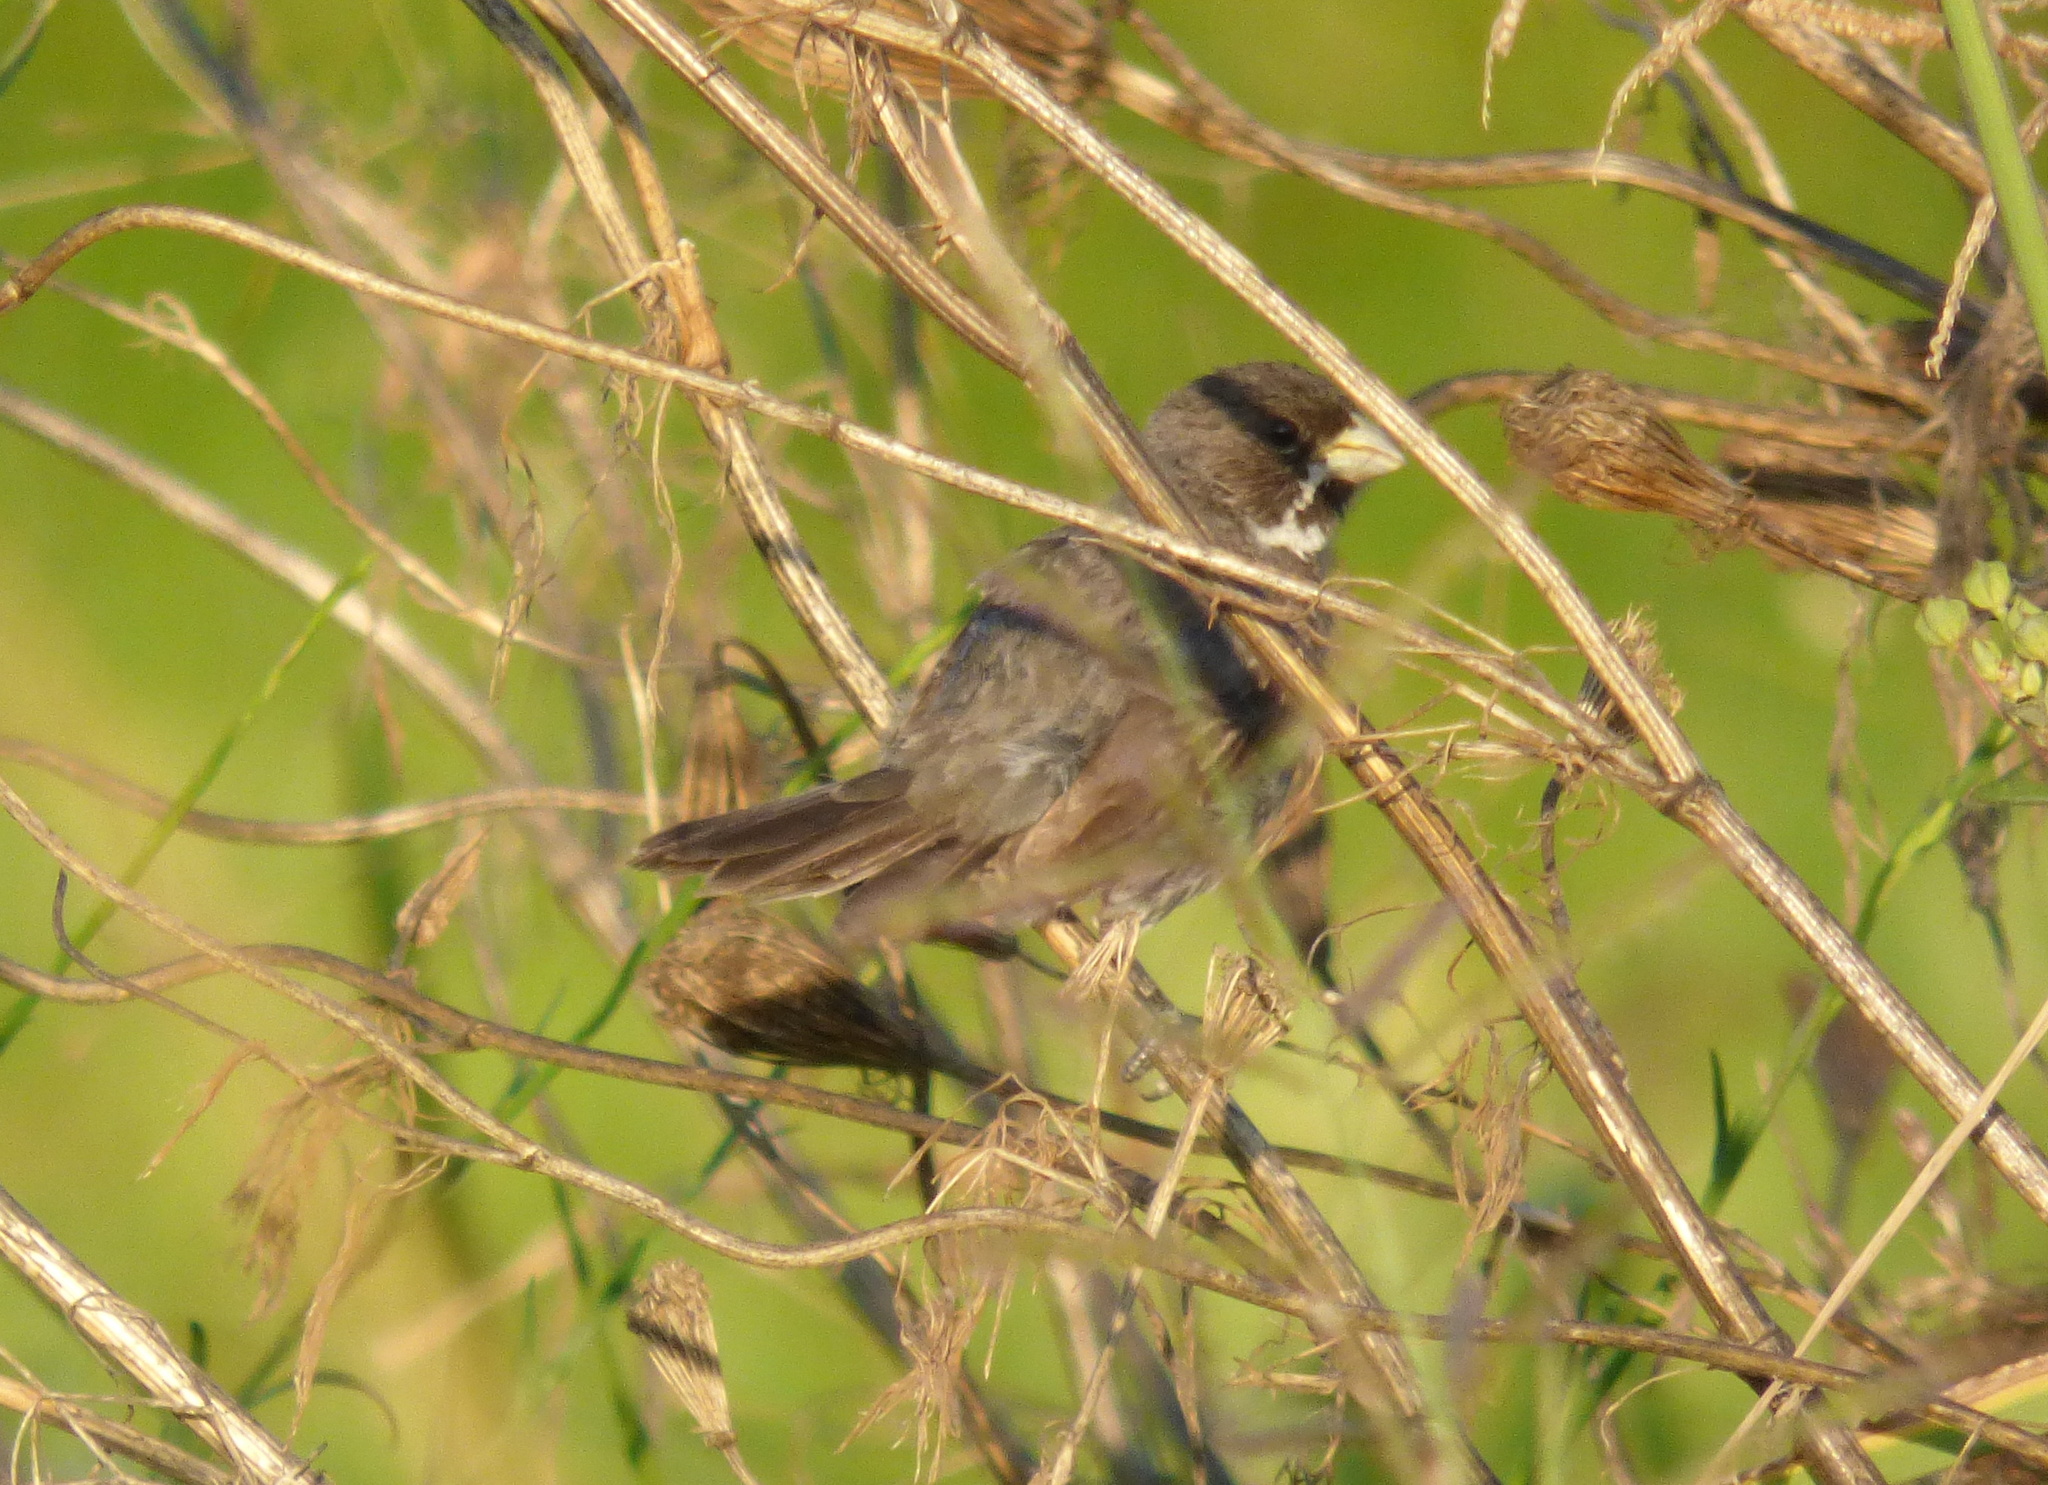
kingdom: Animalia
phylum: Chordata
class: Aves
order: Passeriformes
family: Thraupidae
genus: Sporophila
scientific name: Sporophila caerulescens
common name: Double-collared seedeater
